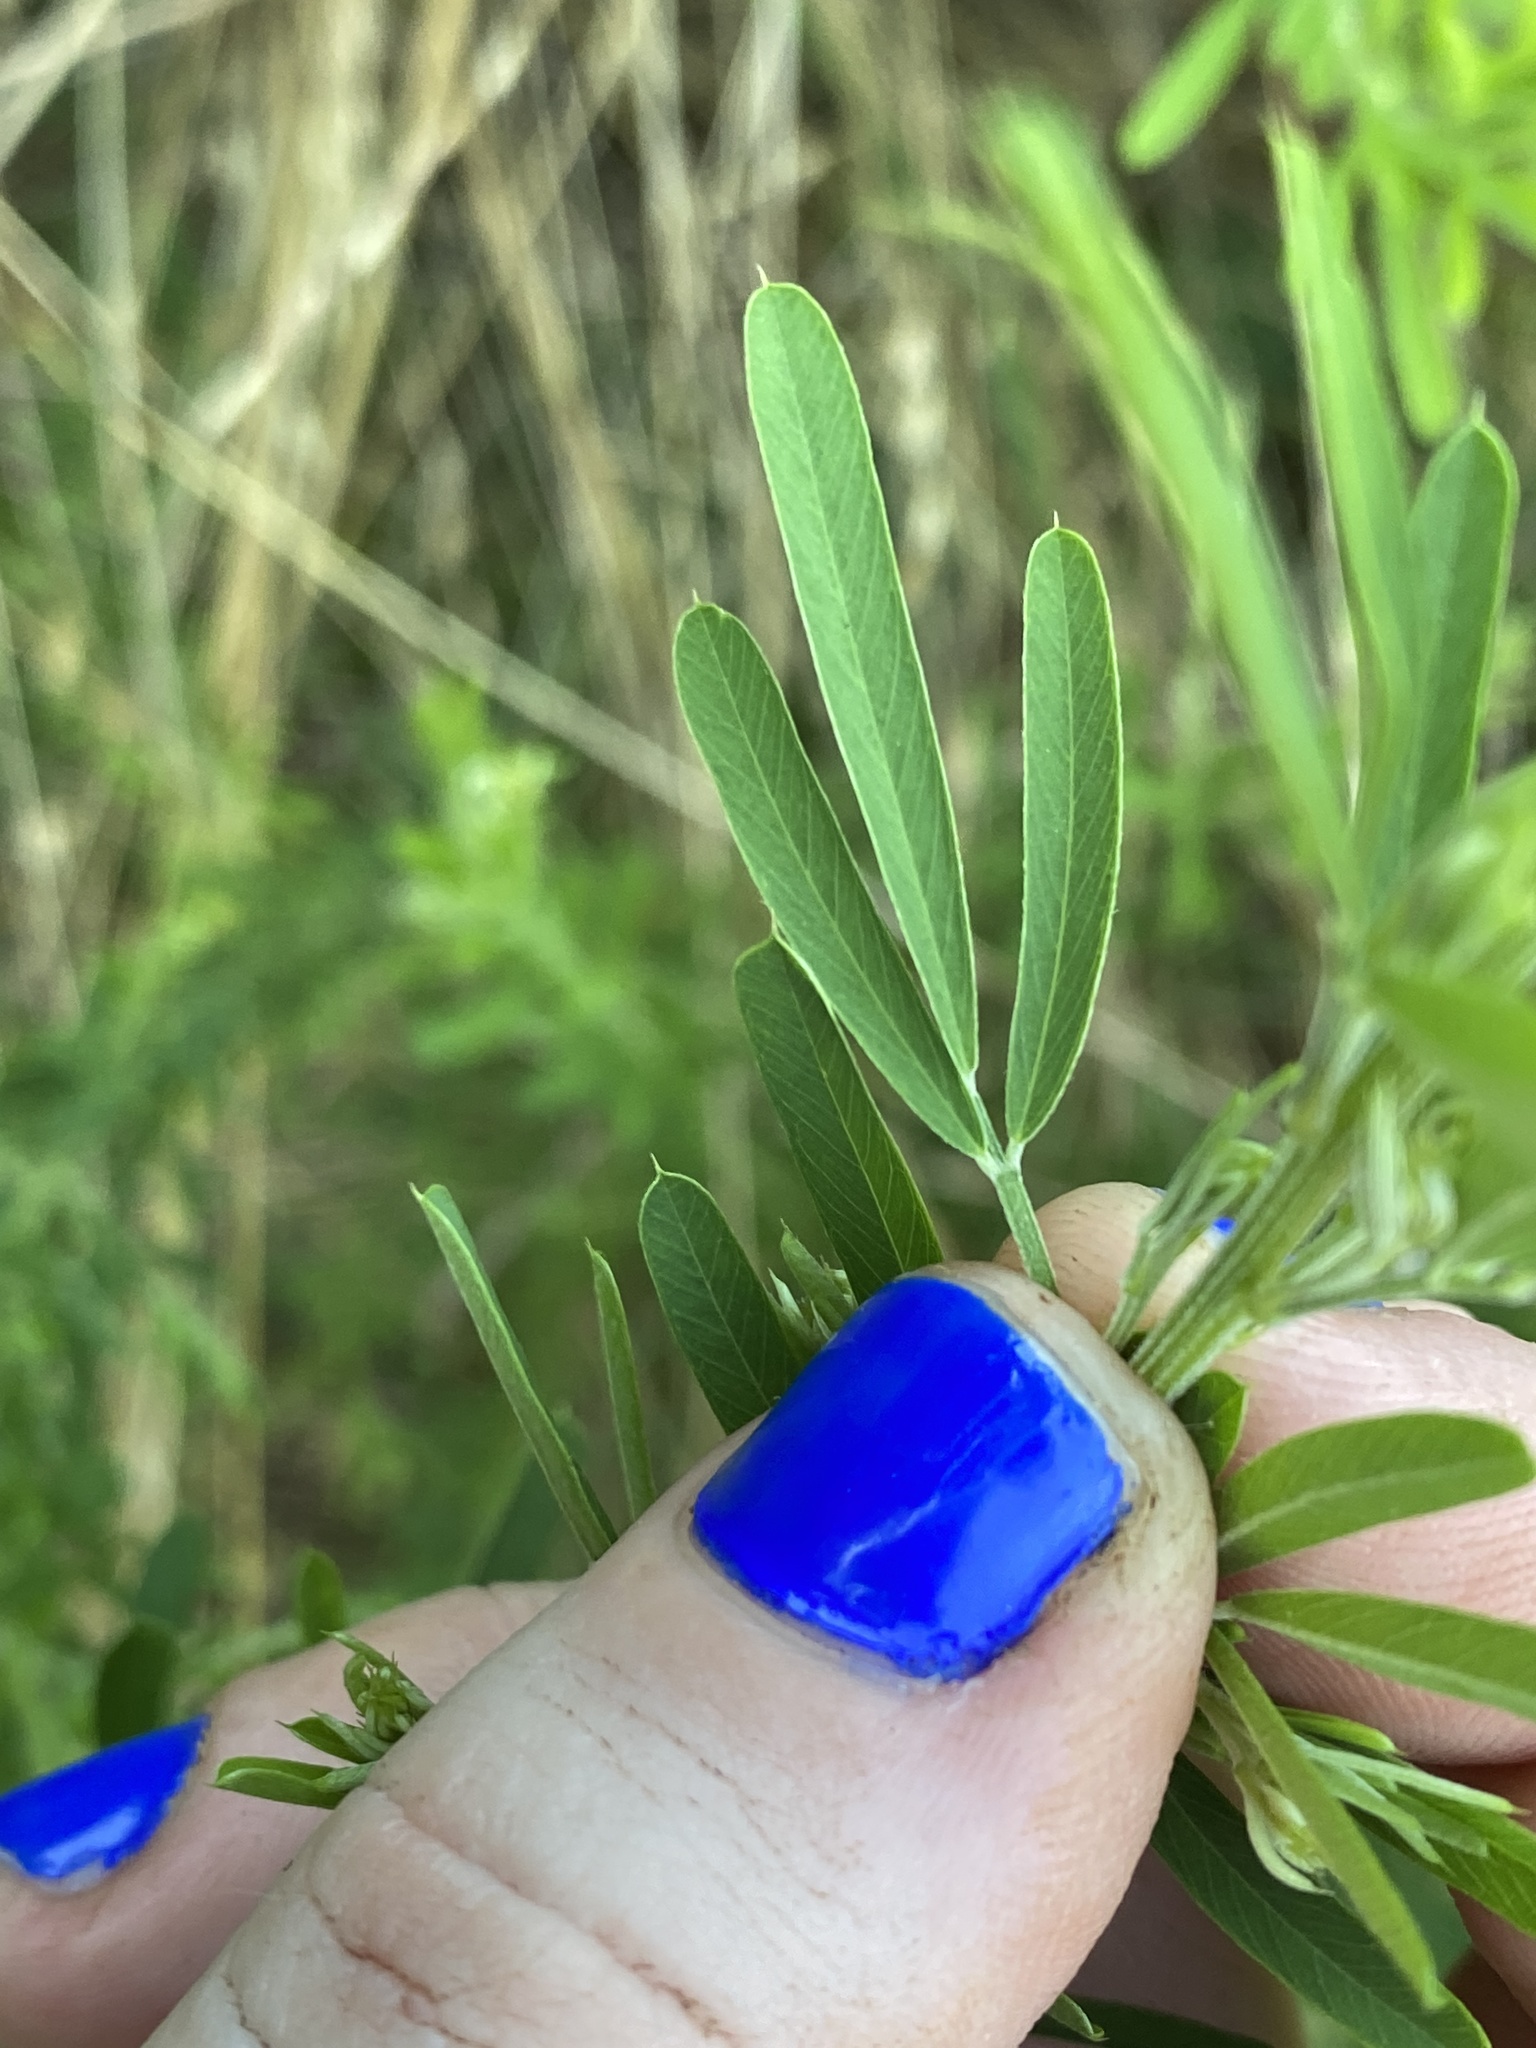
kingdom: Plantae
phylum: Tracheophyta
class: Magnoliopsida
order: Fabales
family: Fabaceae
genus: Lespedeza
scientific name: Lespedeza cuneata
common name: Chinese bush-clover
